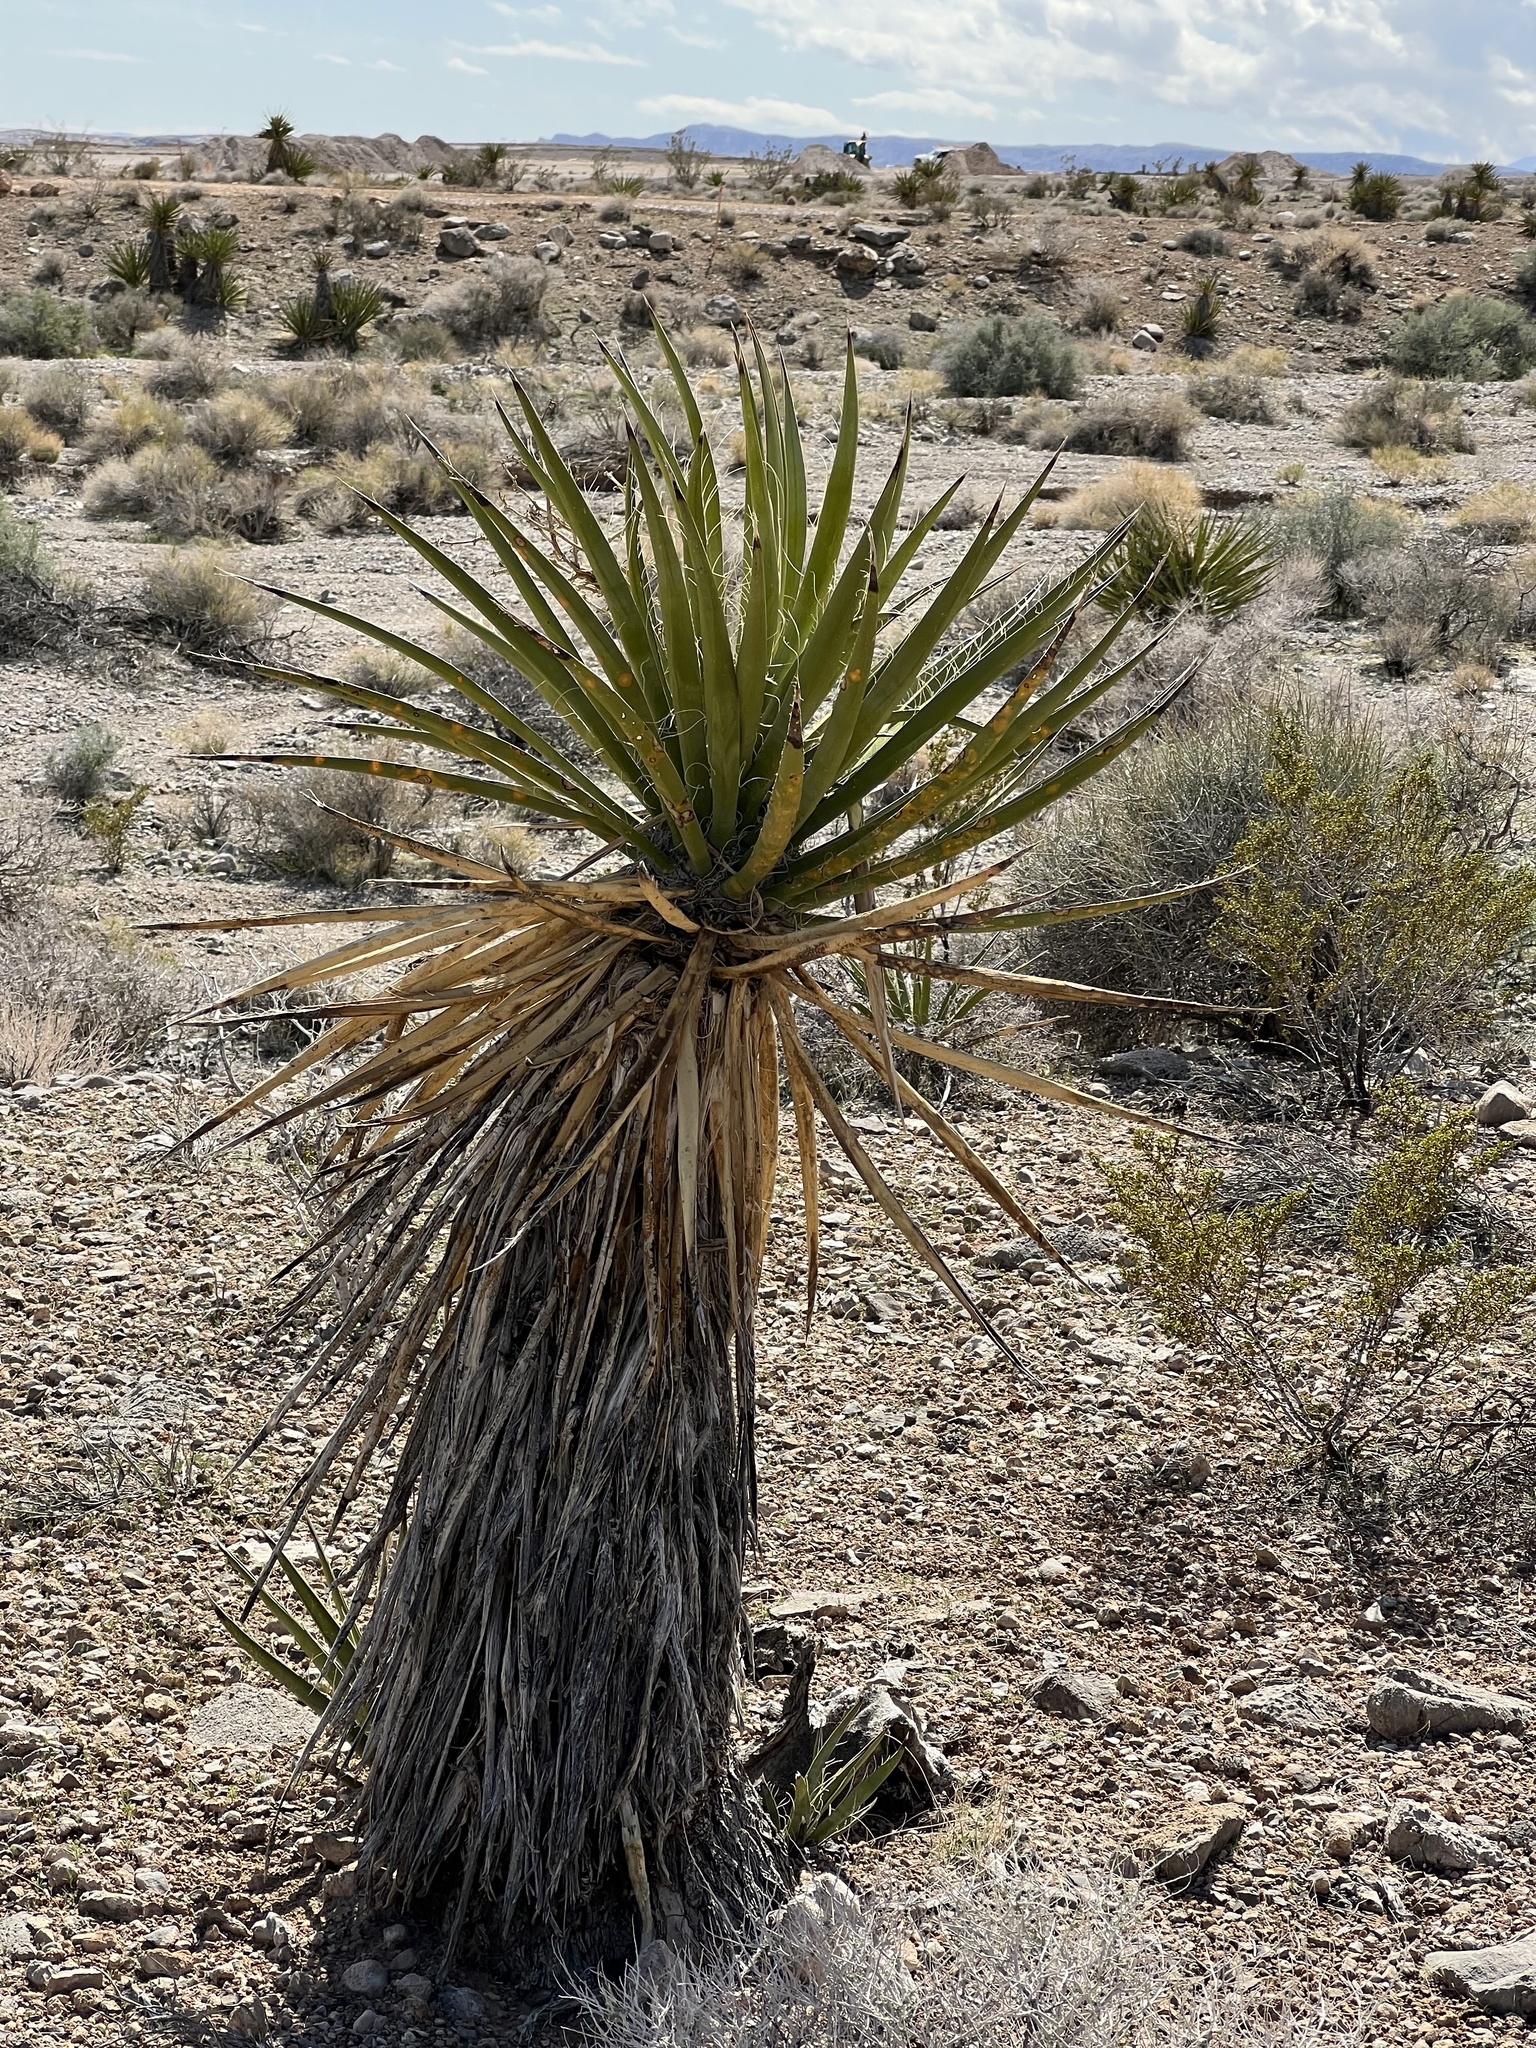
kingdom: Plantae
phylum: Tracheophyta
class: Liliopsida
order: Asparagales
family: Asparagaceae
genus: Yucca
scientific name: Yucca schidigera
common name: Mojave yucca
